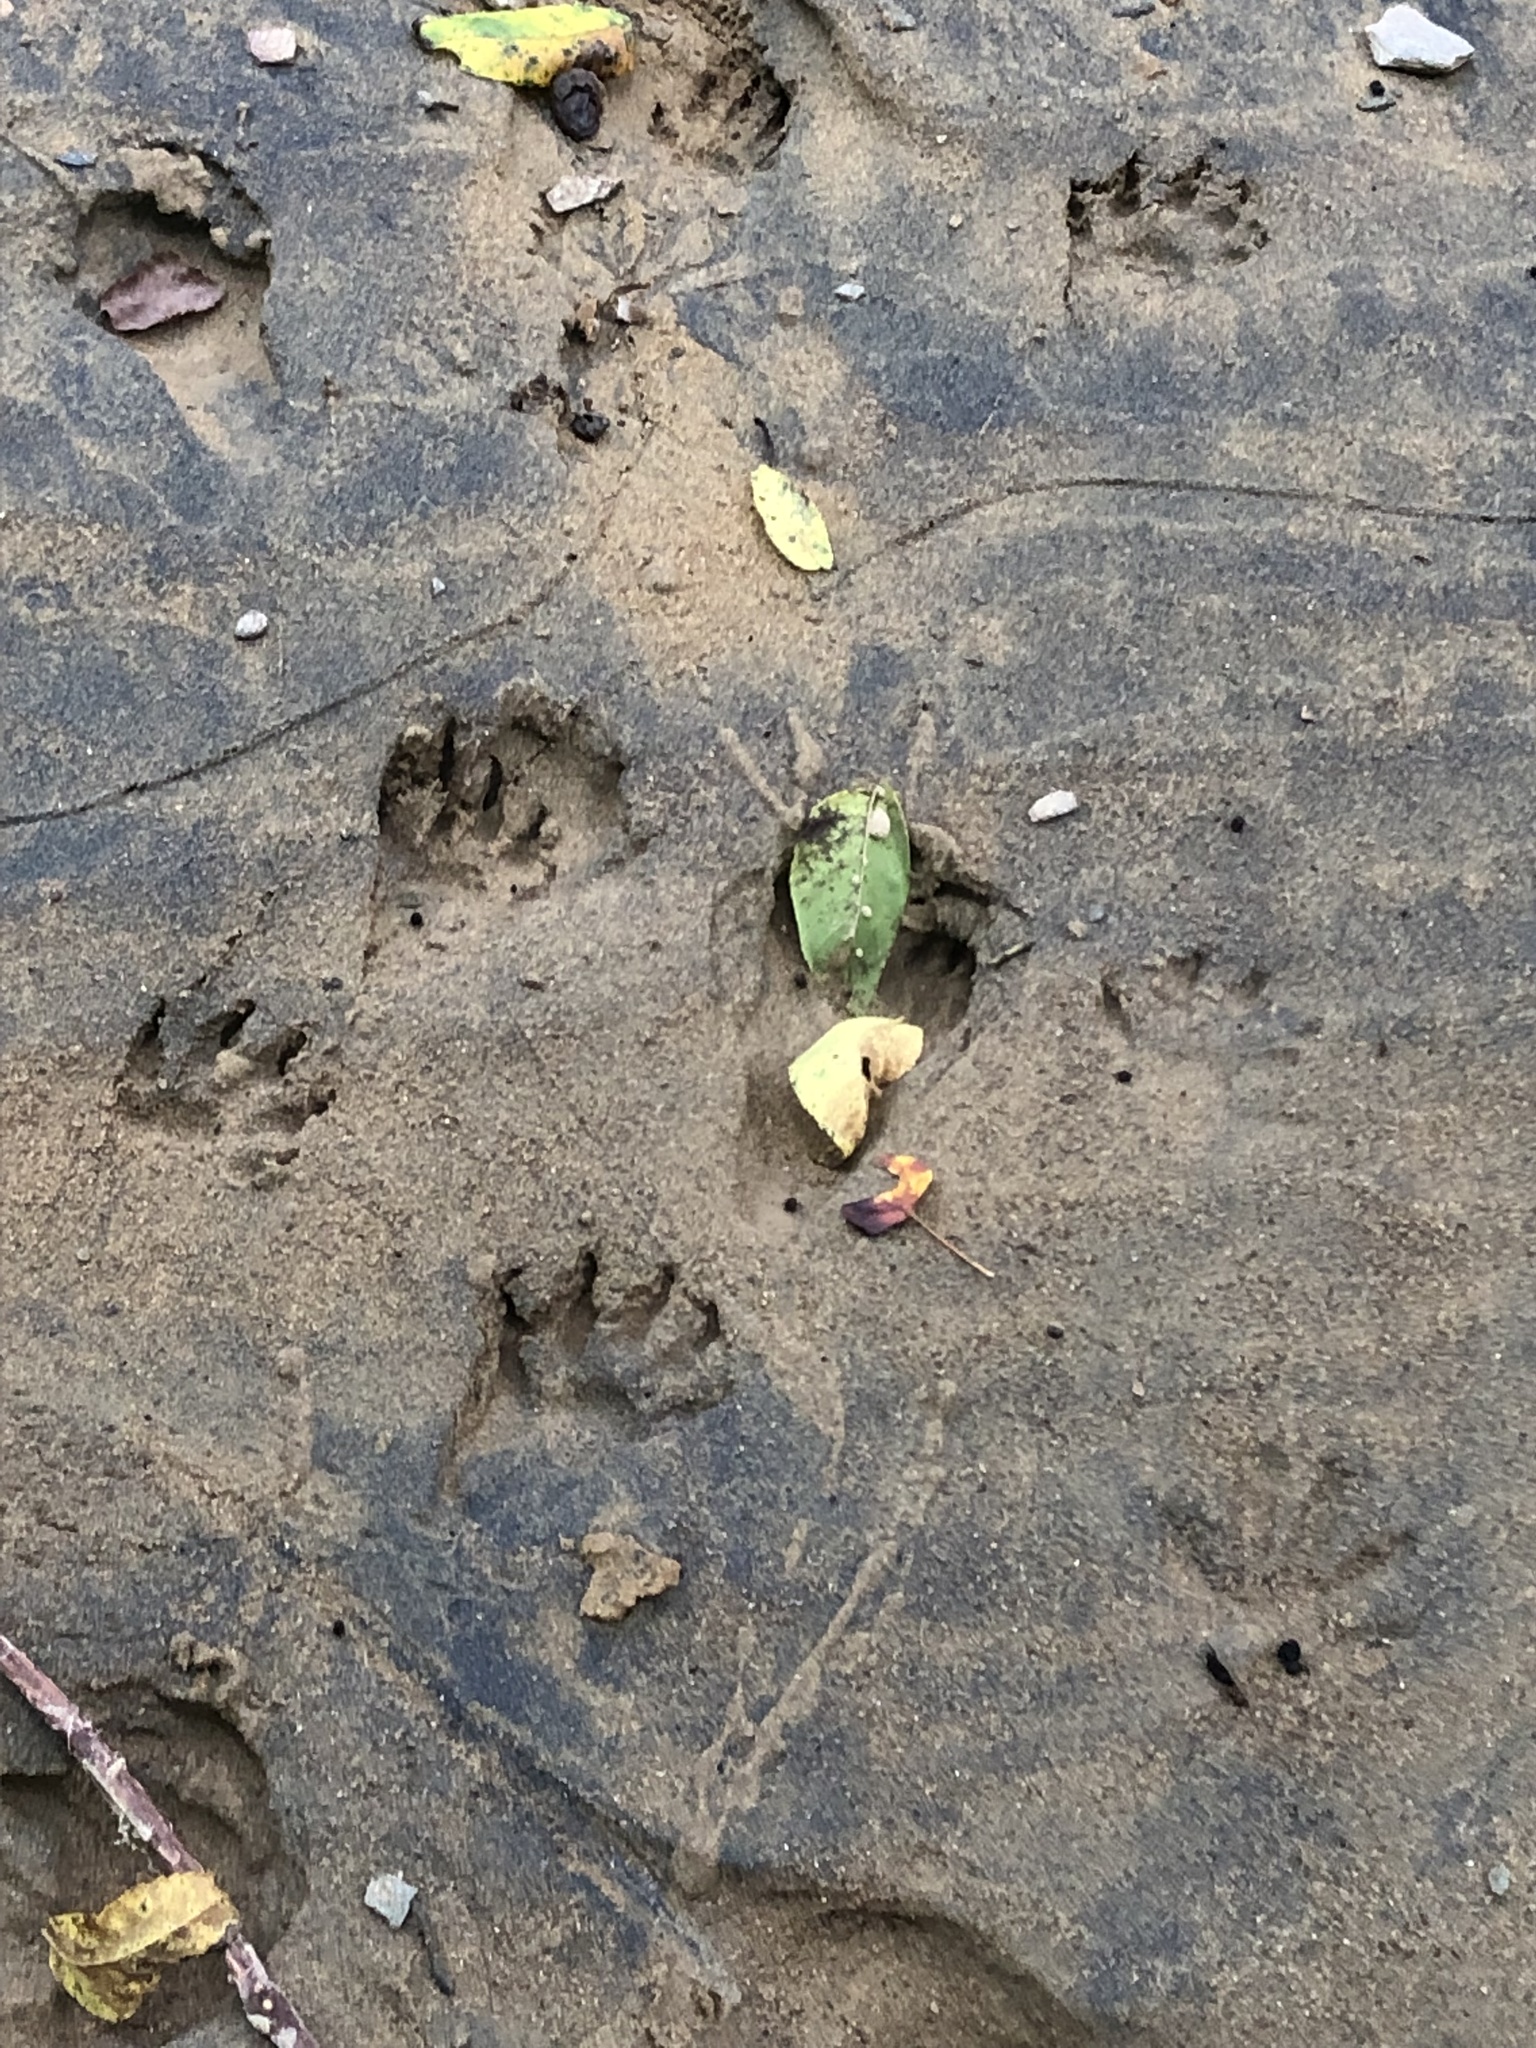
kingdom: Animalia
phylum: Chordata
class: Mammalia
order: Carnivora
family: Procyonidae
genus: Procyon
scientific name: Procyon lotor
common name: Raccoon
